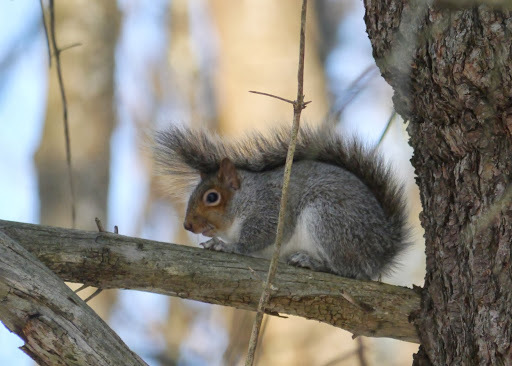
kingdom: Animalia
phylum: Chordata
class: Mammalia
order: Rodentia
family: Sciuridae
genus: Sciurus
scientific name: Sciurus carolinensis
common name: Eastern gray squirrel
